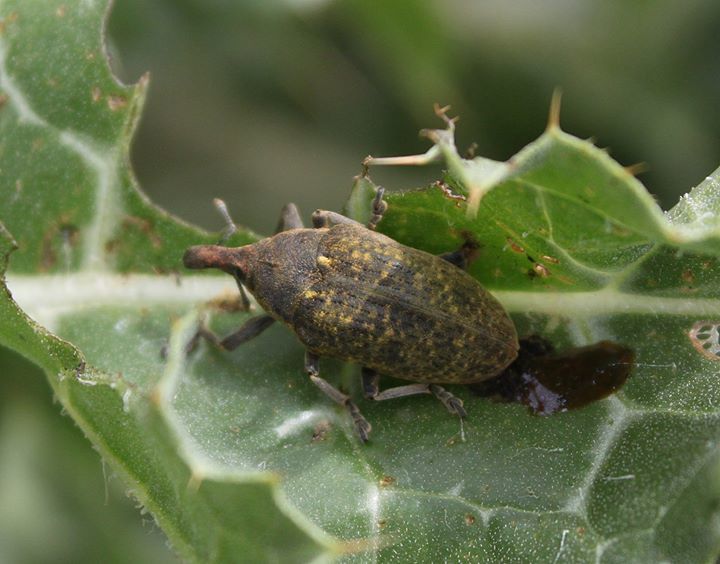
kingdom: Animalia
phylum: Arthropoda
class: Insecta
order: Coleoptera
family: Curculionidae
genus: Larinus
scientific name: Larinus latus
